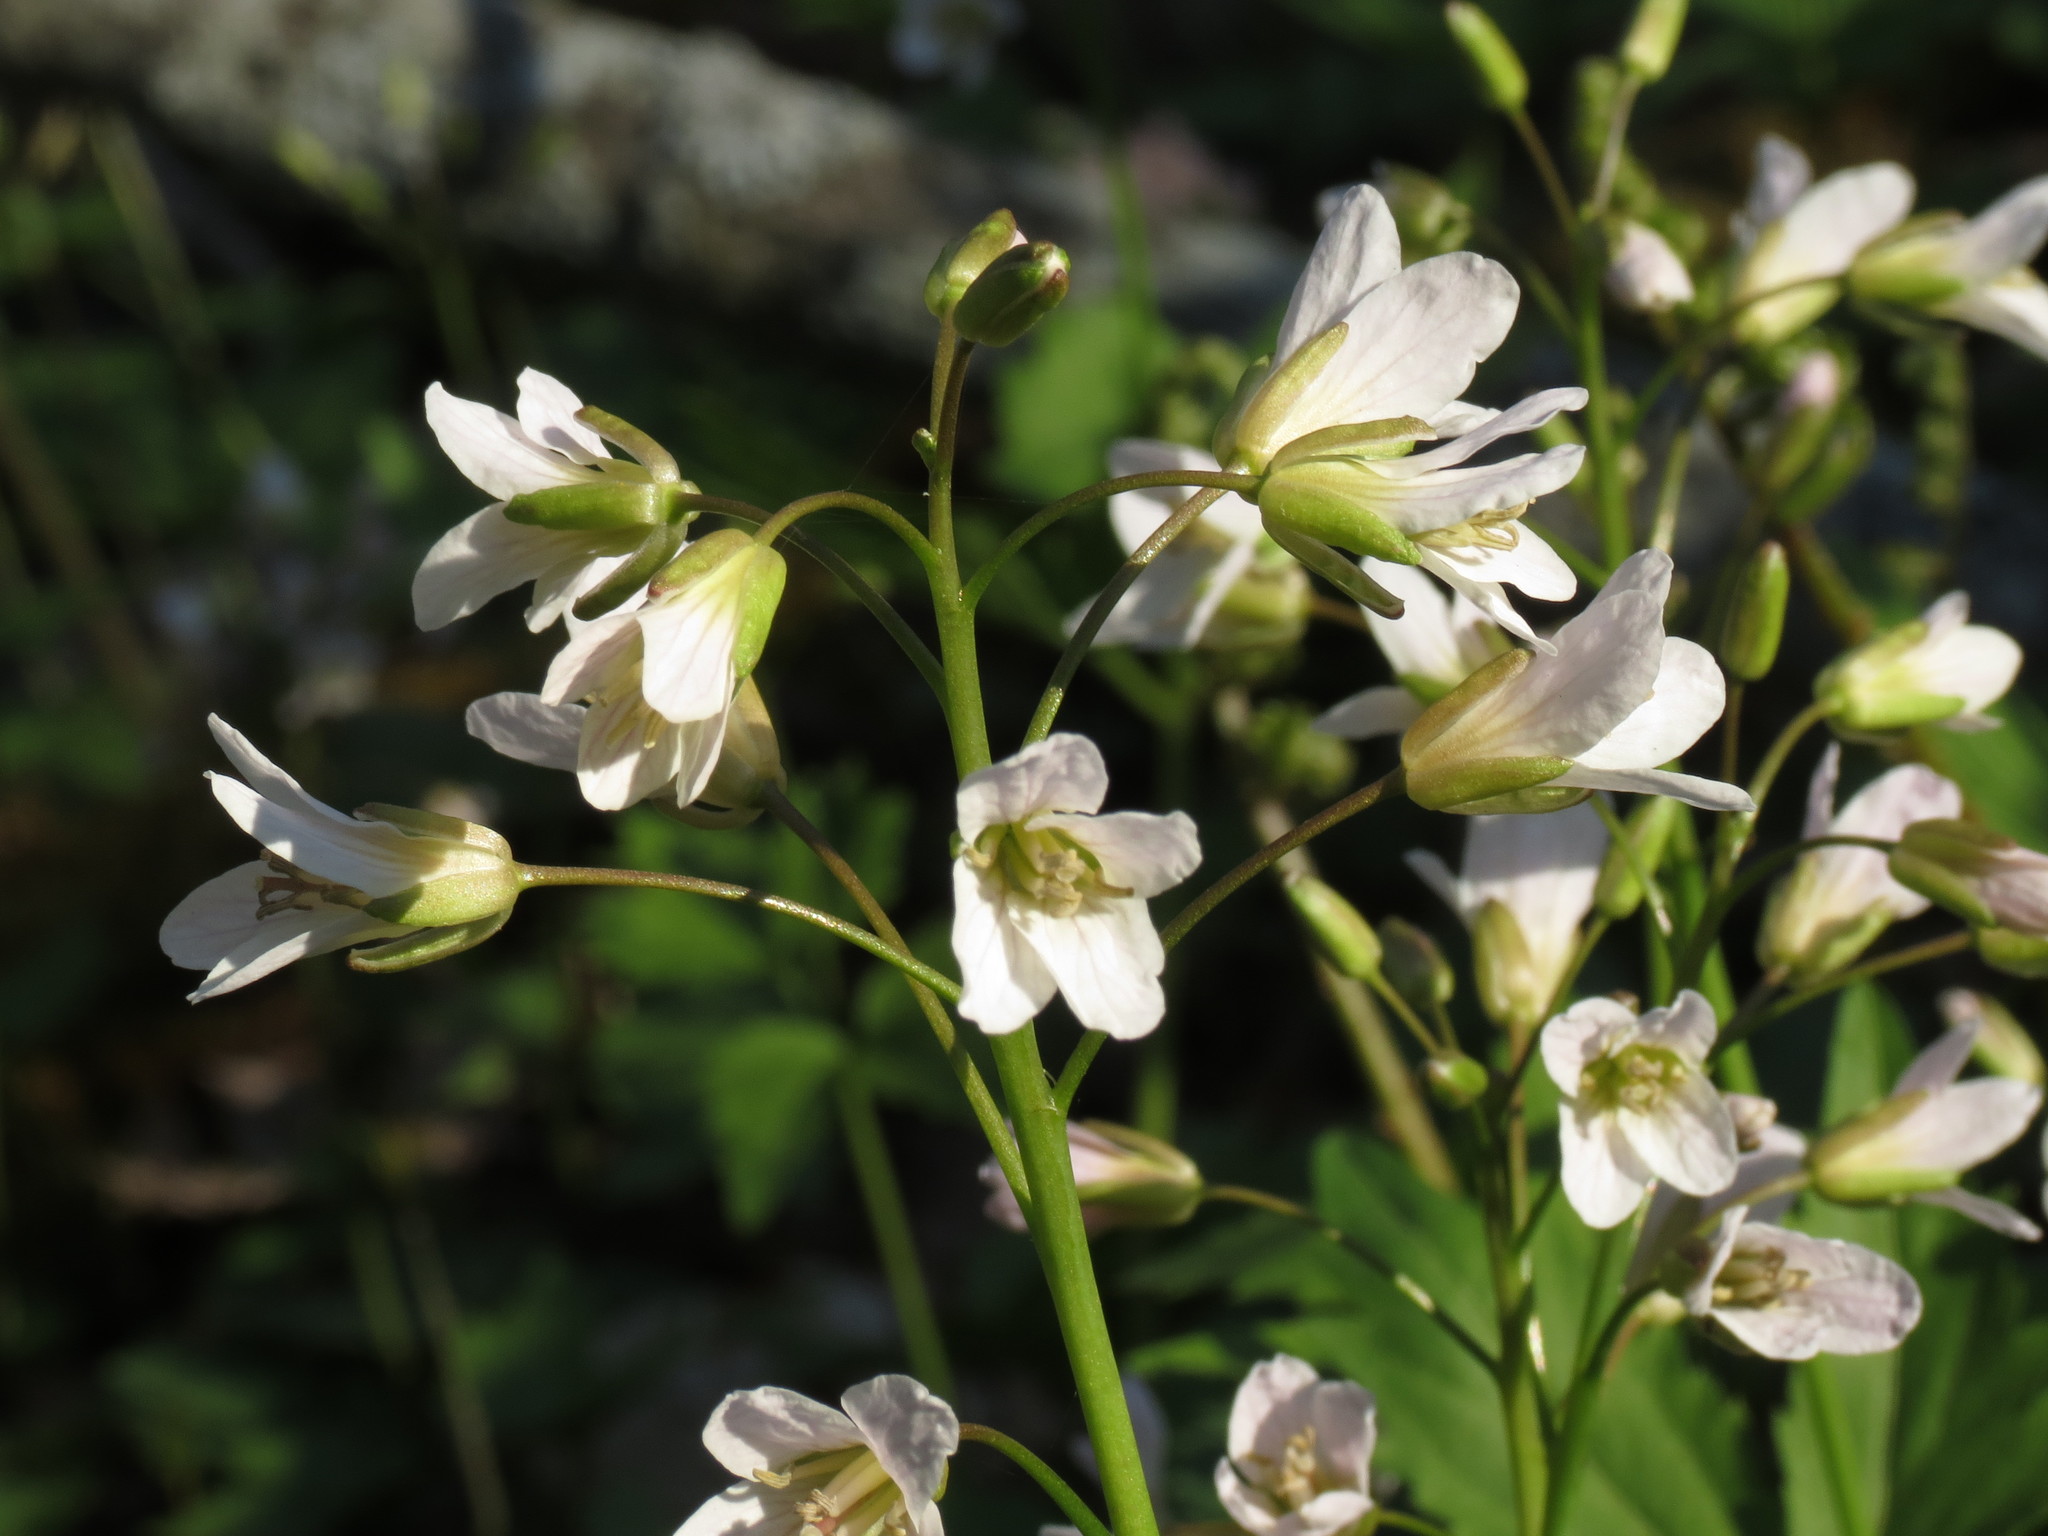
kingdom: Plantae
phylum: Tracheophyta
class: Magnoliopsida
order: Brassicales
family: Brassicaceae
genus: Cardamine
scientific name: Cardamine diphylla
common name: Broad-leaved toothwort
